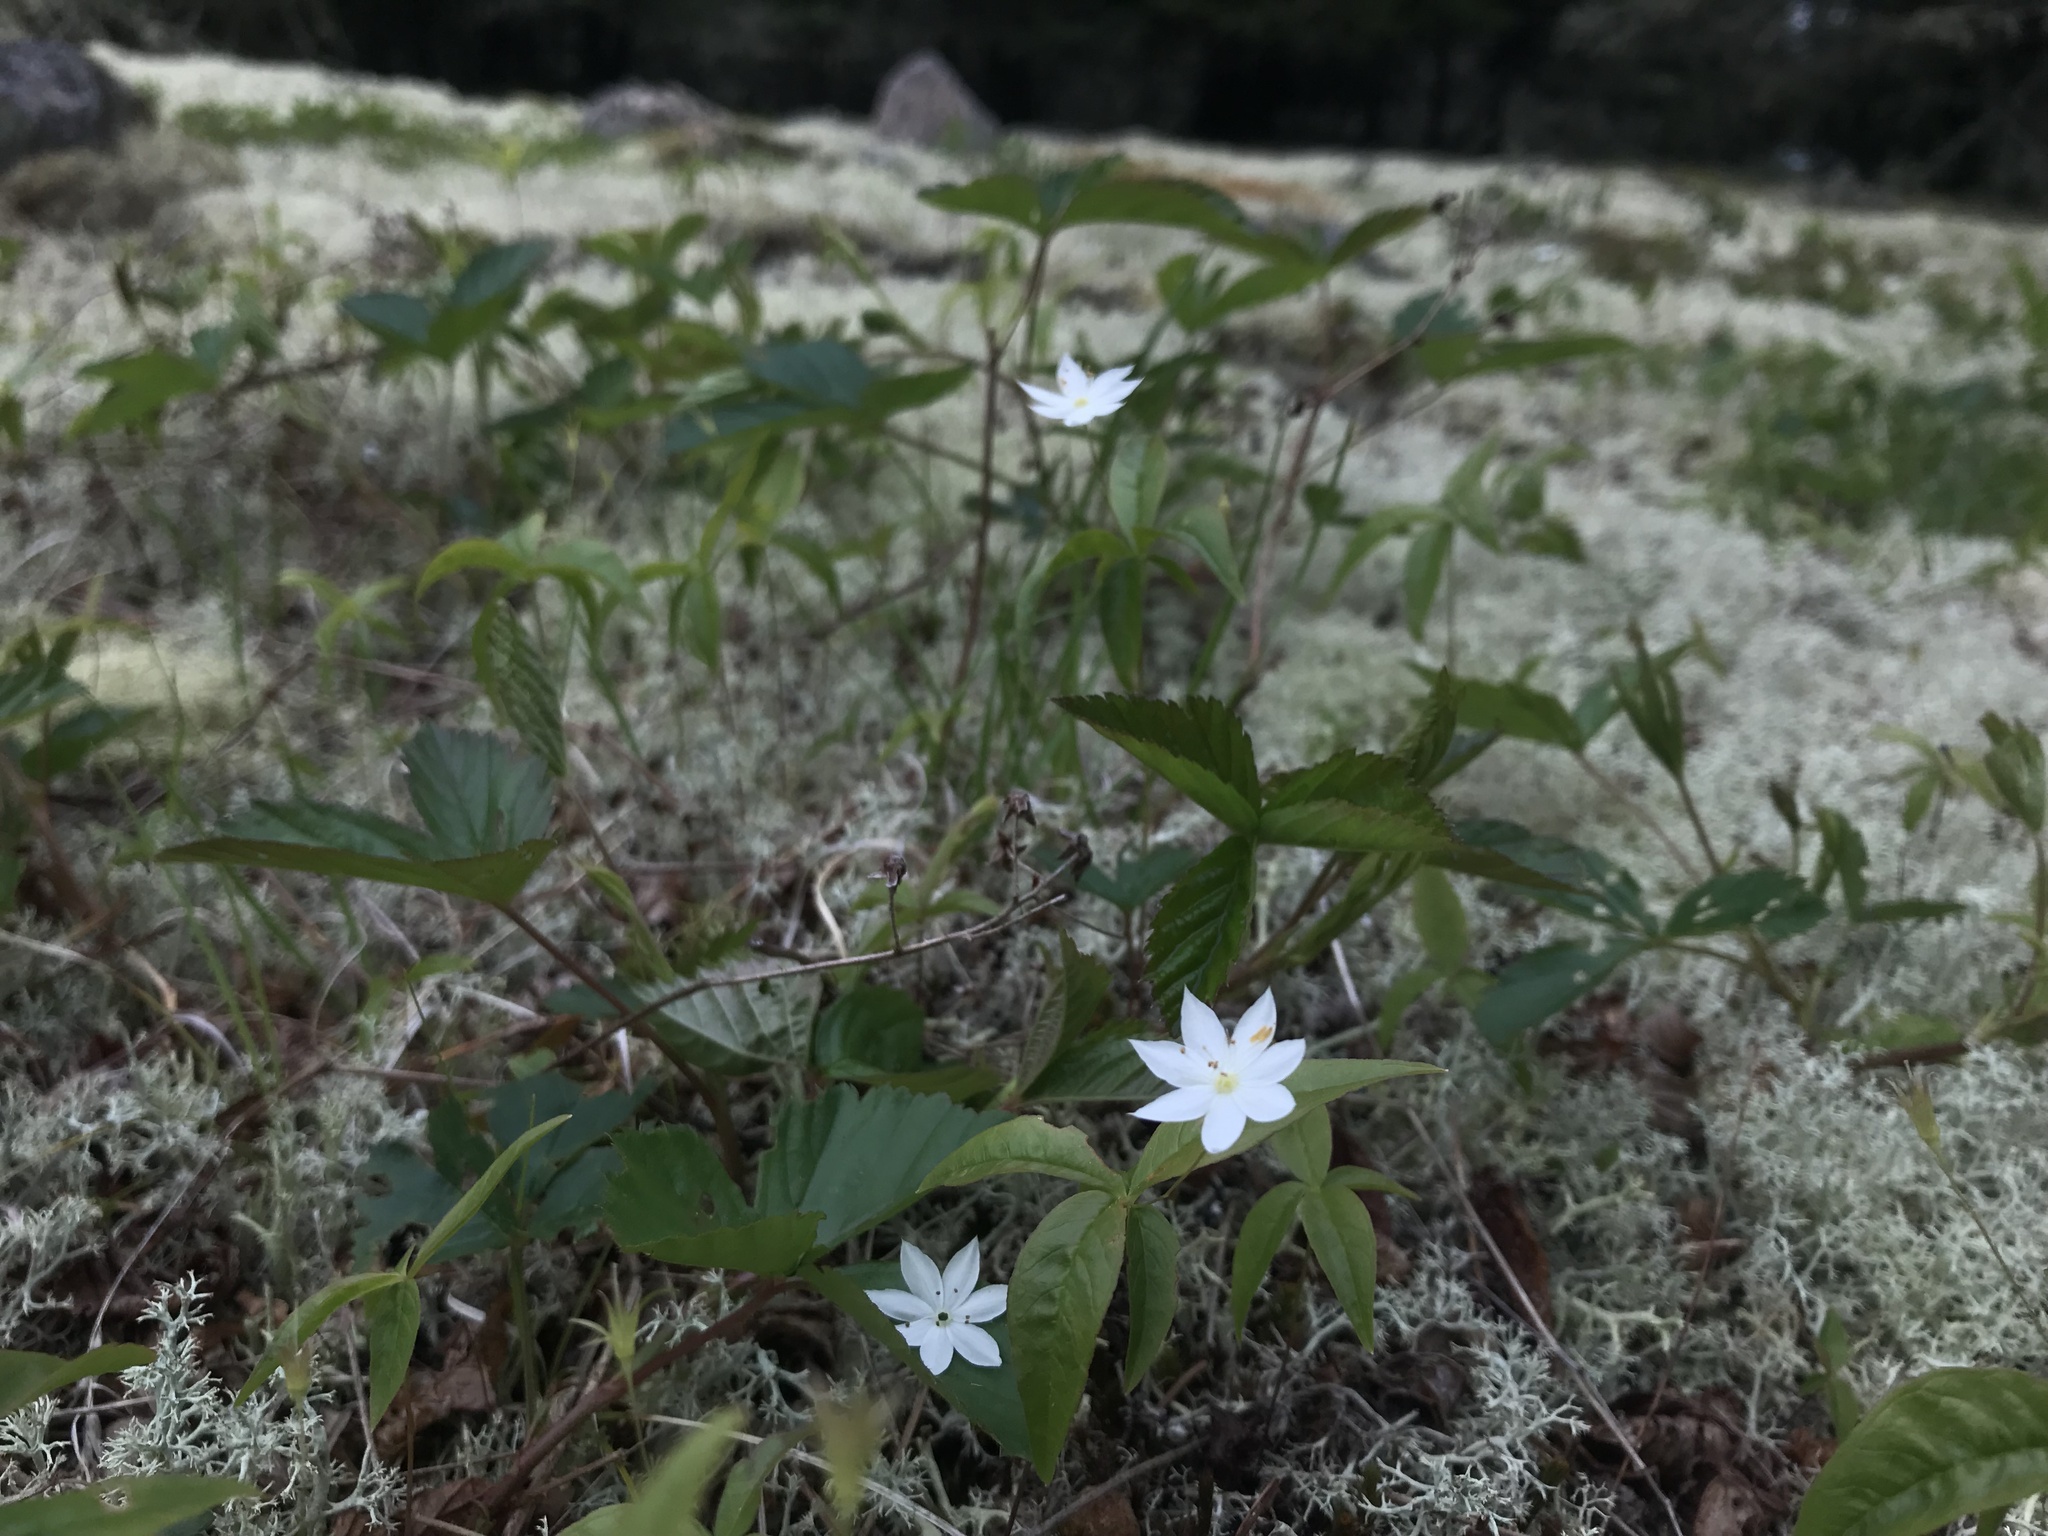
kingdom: Plantae
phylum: Tracheophyta
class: Magnoliopsida
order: Ericales
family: Primulaceae
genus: Lysimachia
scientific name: Lysimachia borealis
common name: American starflower
